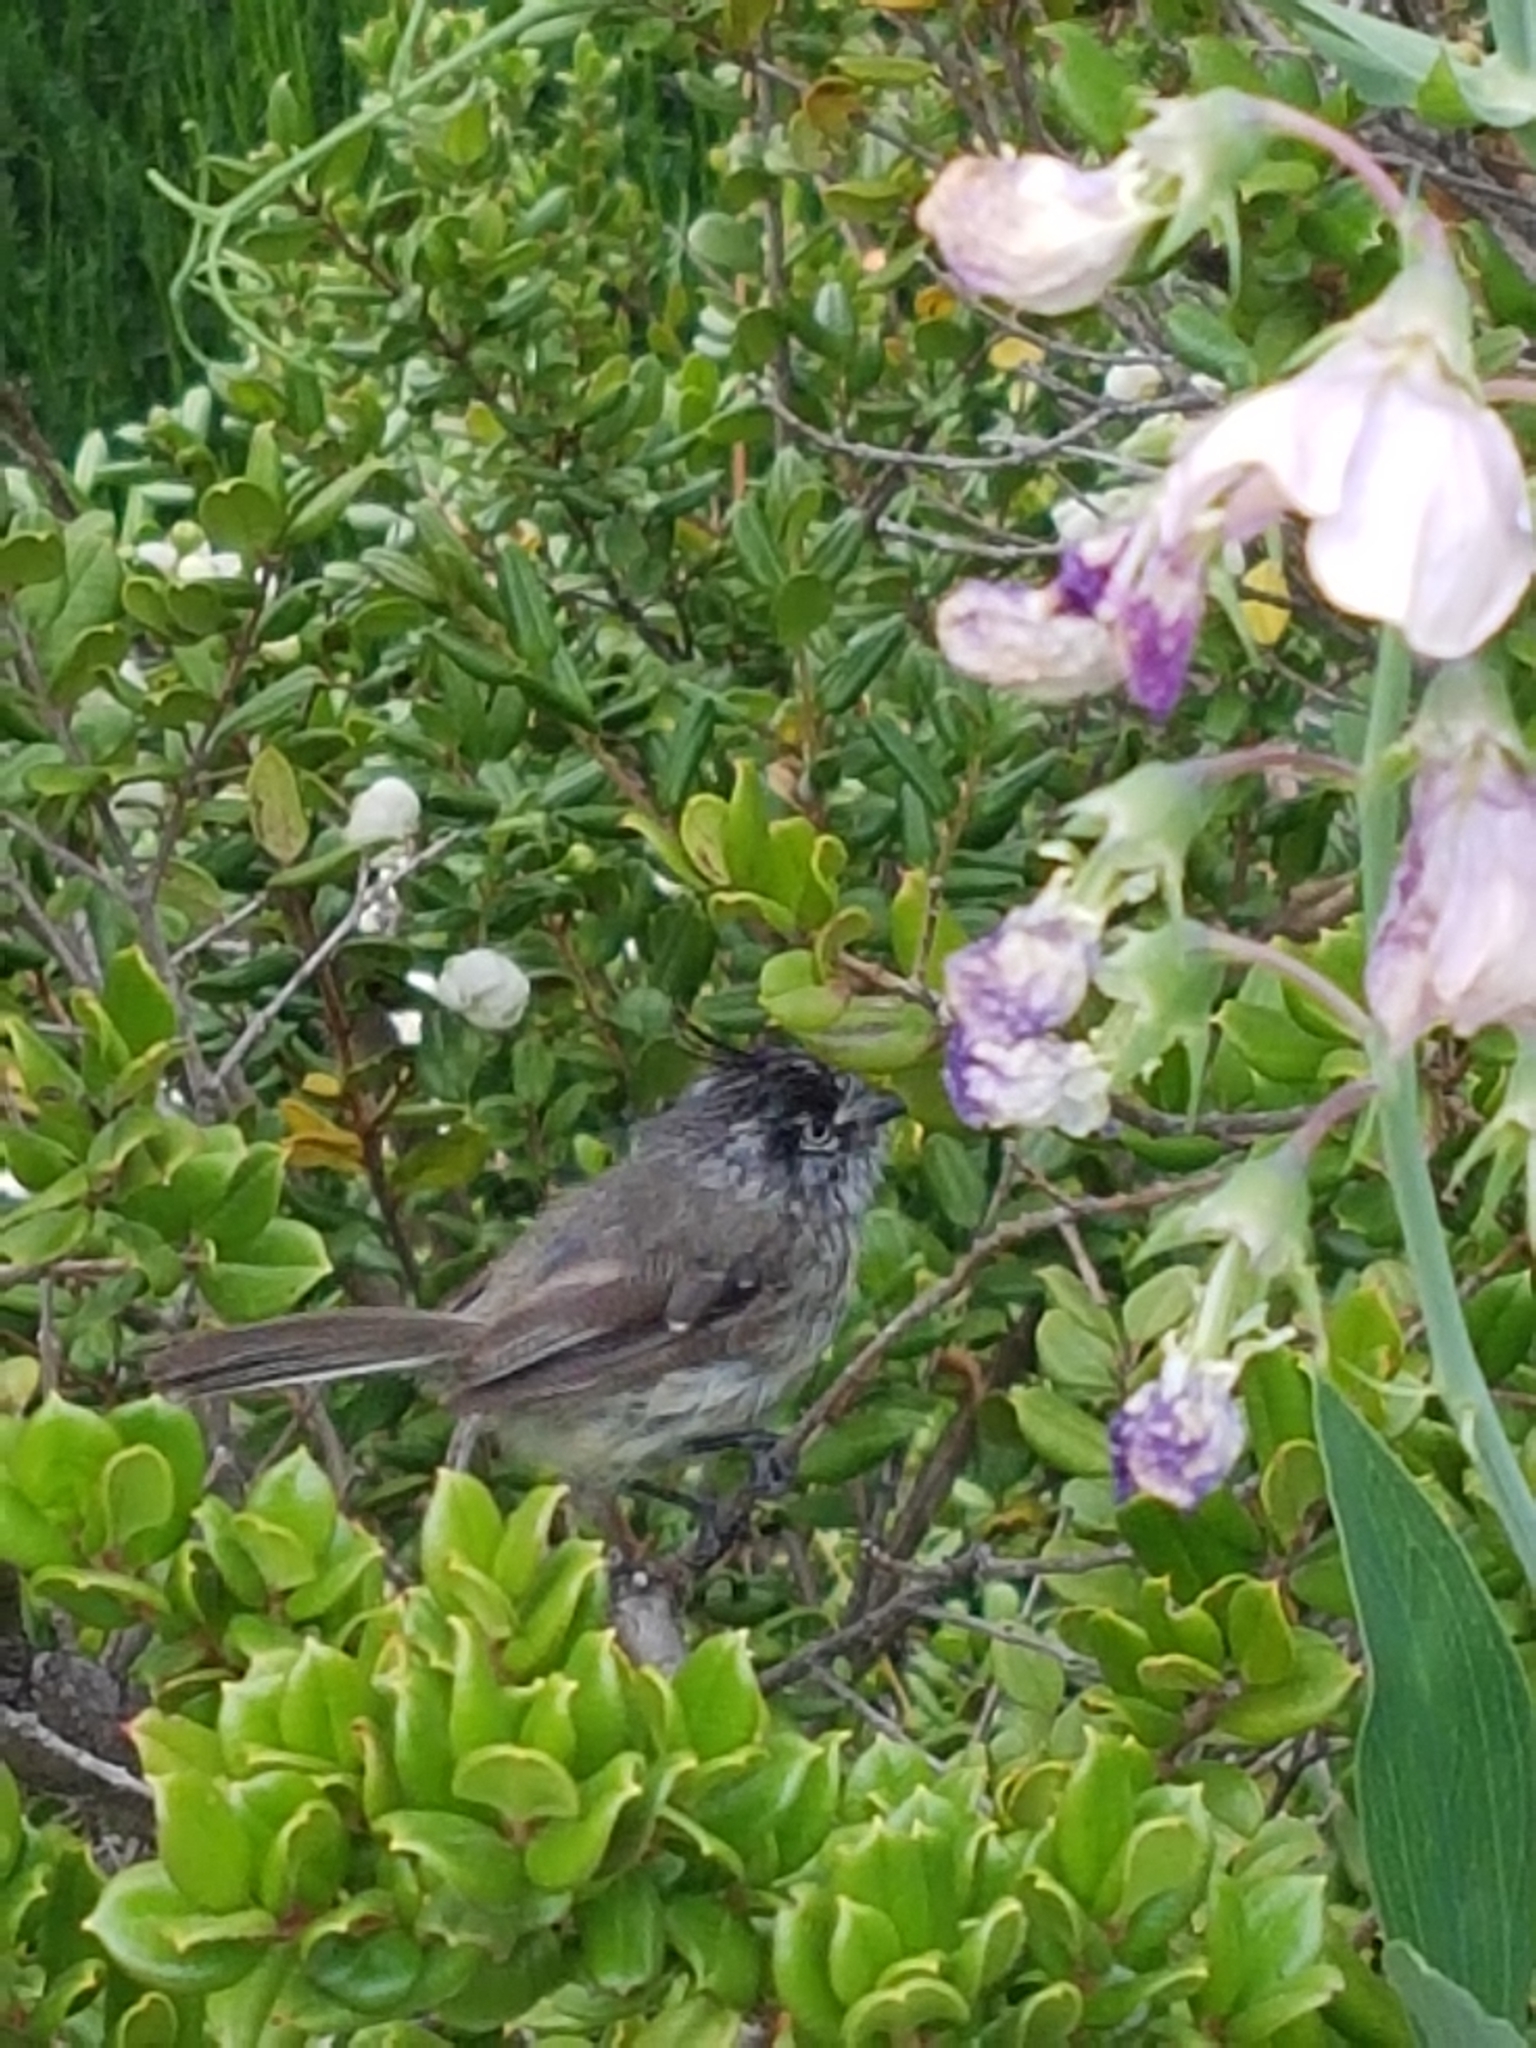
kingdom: Animalia
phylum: Chordata
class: Aves
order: Passeriformes
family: Tyrannidae
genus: Anairetes
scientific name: Anairetes parulus
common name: Tufted tit-tyrant
